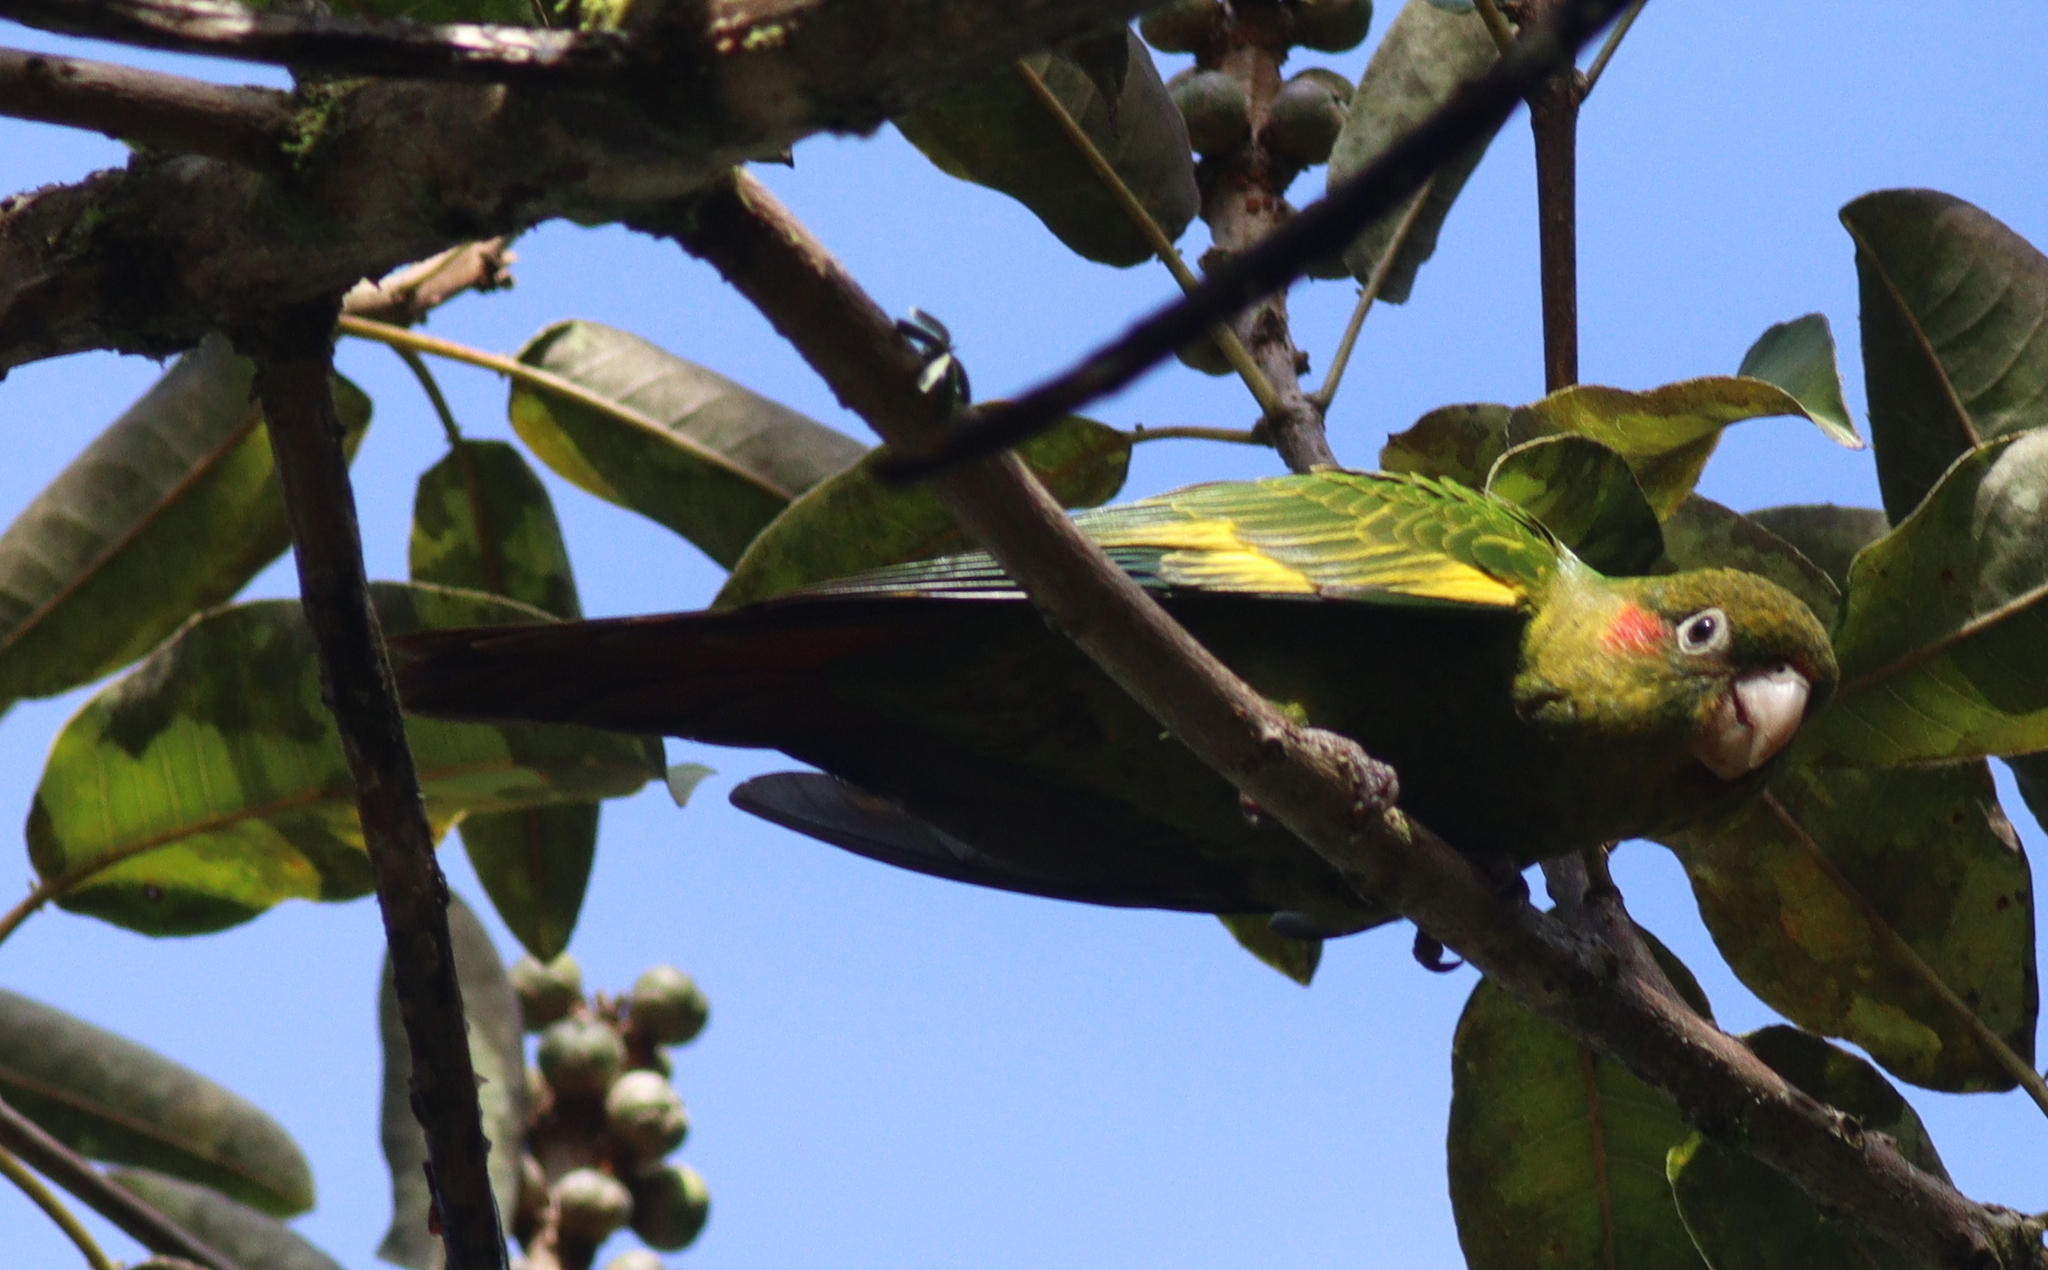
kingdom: Animalia
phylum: Chordata
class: Aves
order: Psittaciformes
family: Psittacidae
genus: Pyrrhura
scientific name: Pyrrhura hoffmanni
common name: Sulphur-winged parakeet
